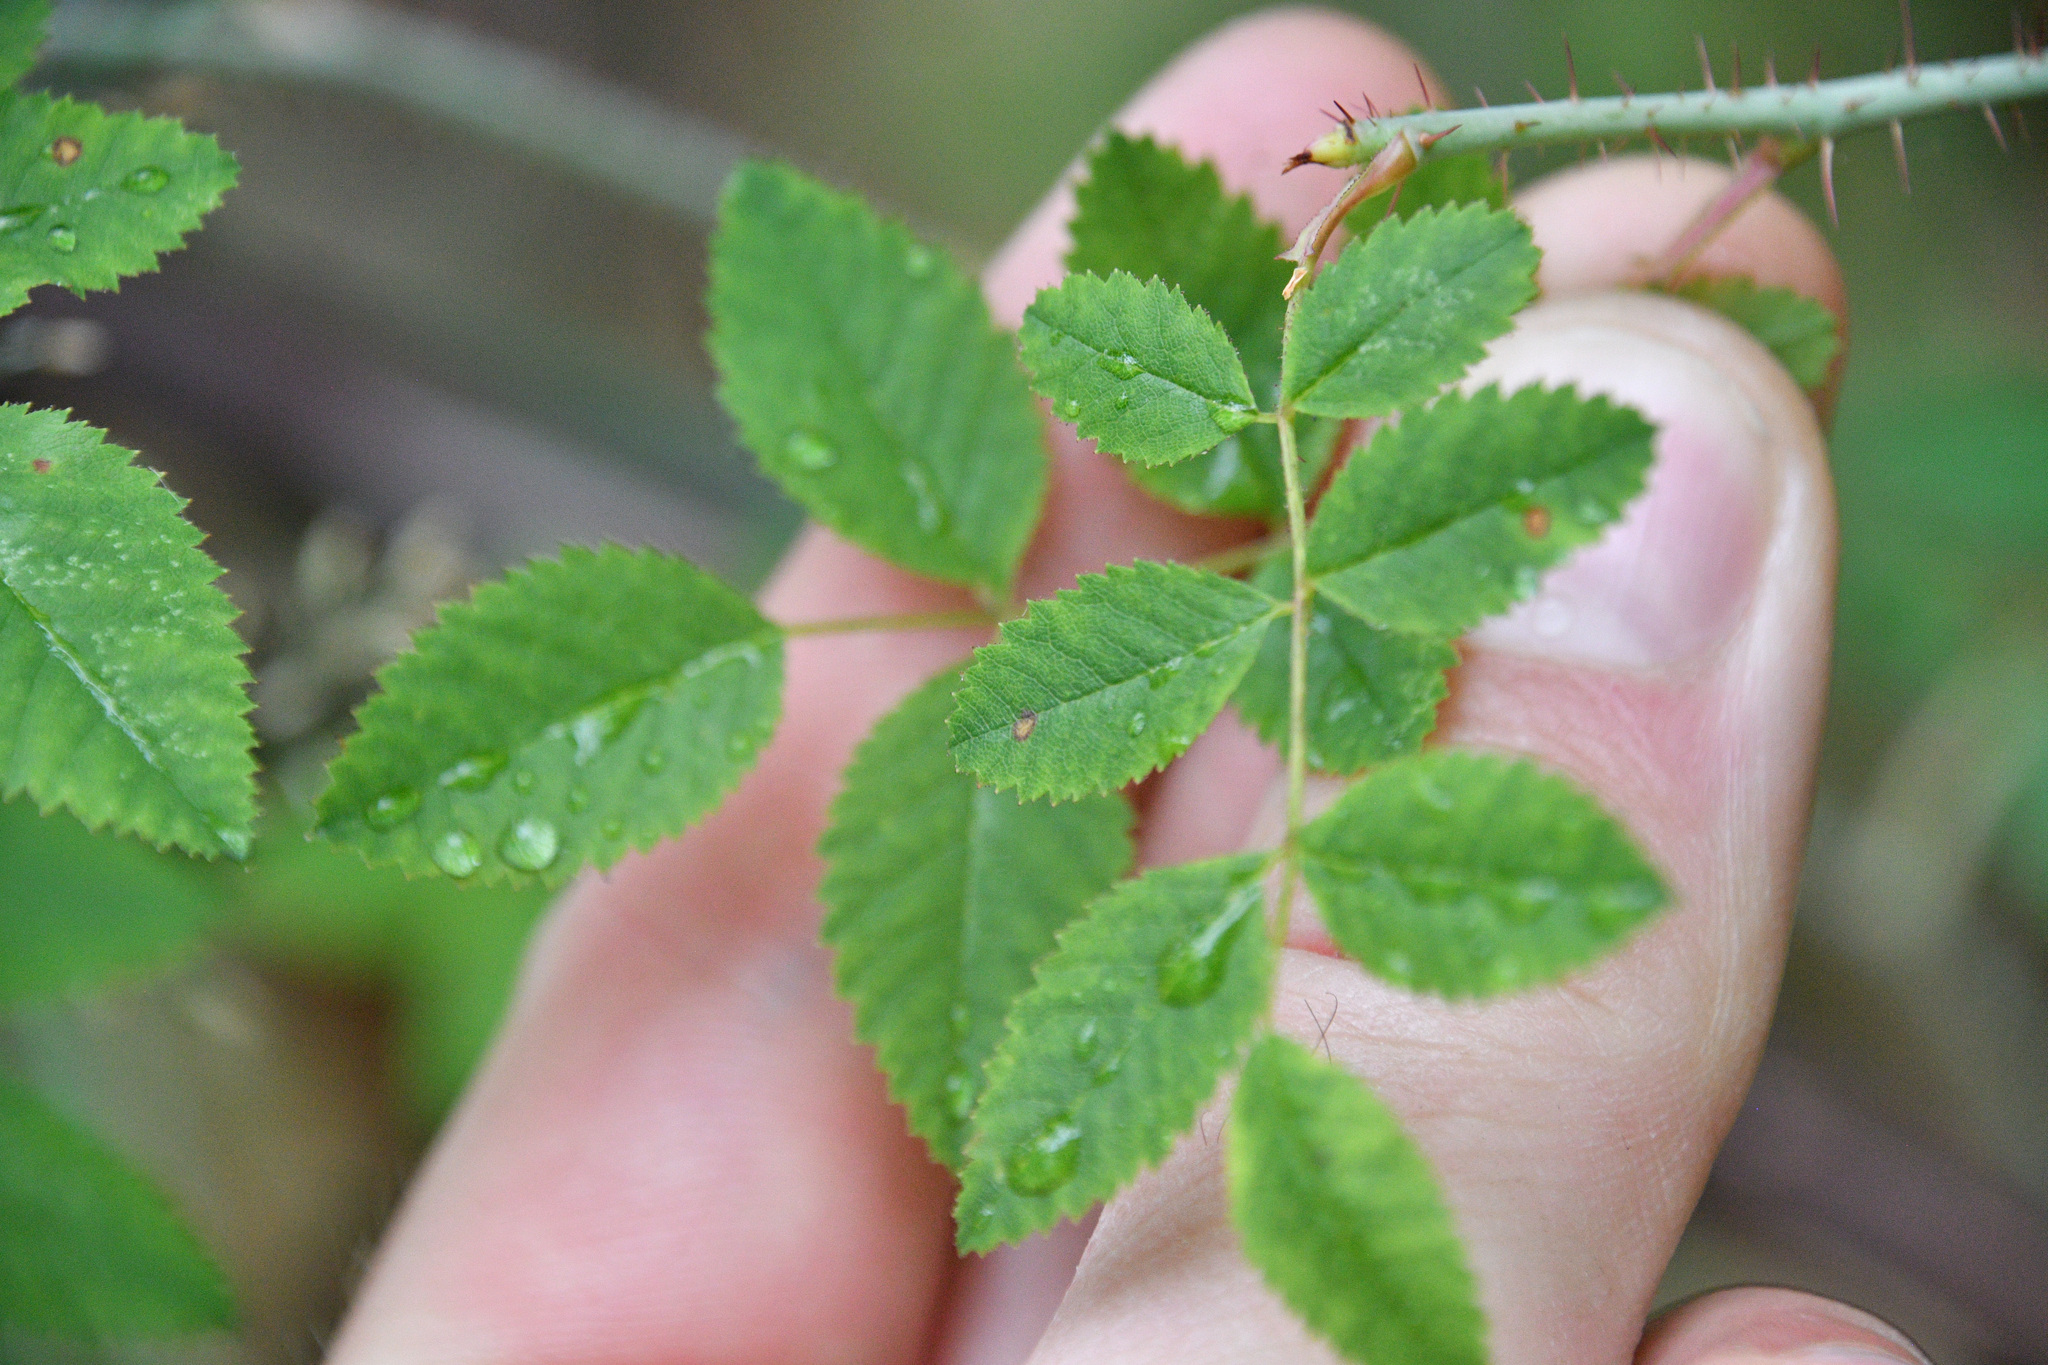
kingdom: Plantae
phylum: Tracheophyta
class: Magnoliopsida
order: Rosales
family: Rosaceae
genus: Rosa
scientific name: Rosa gymnocarpa
